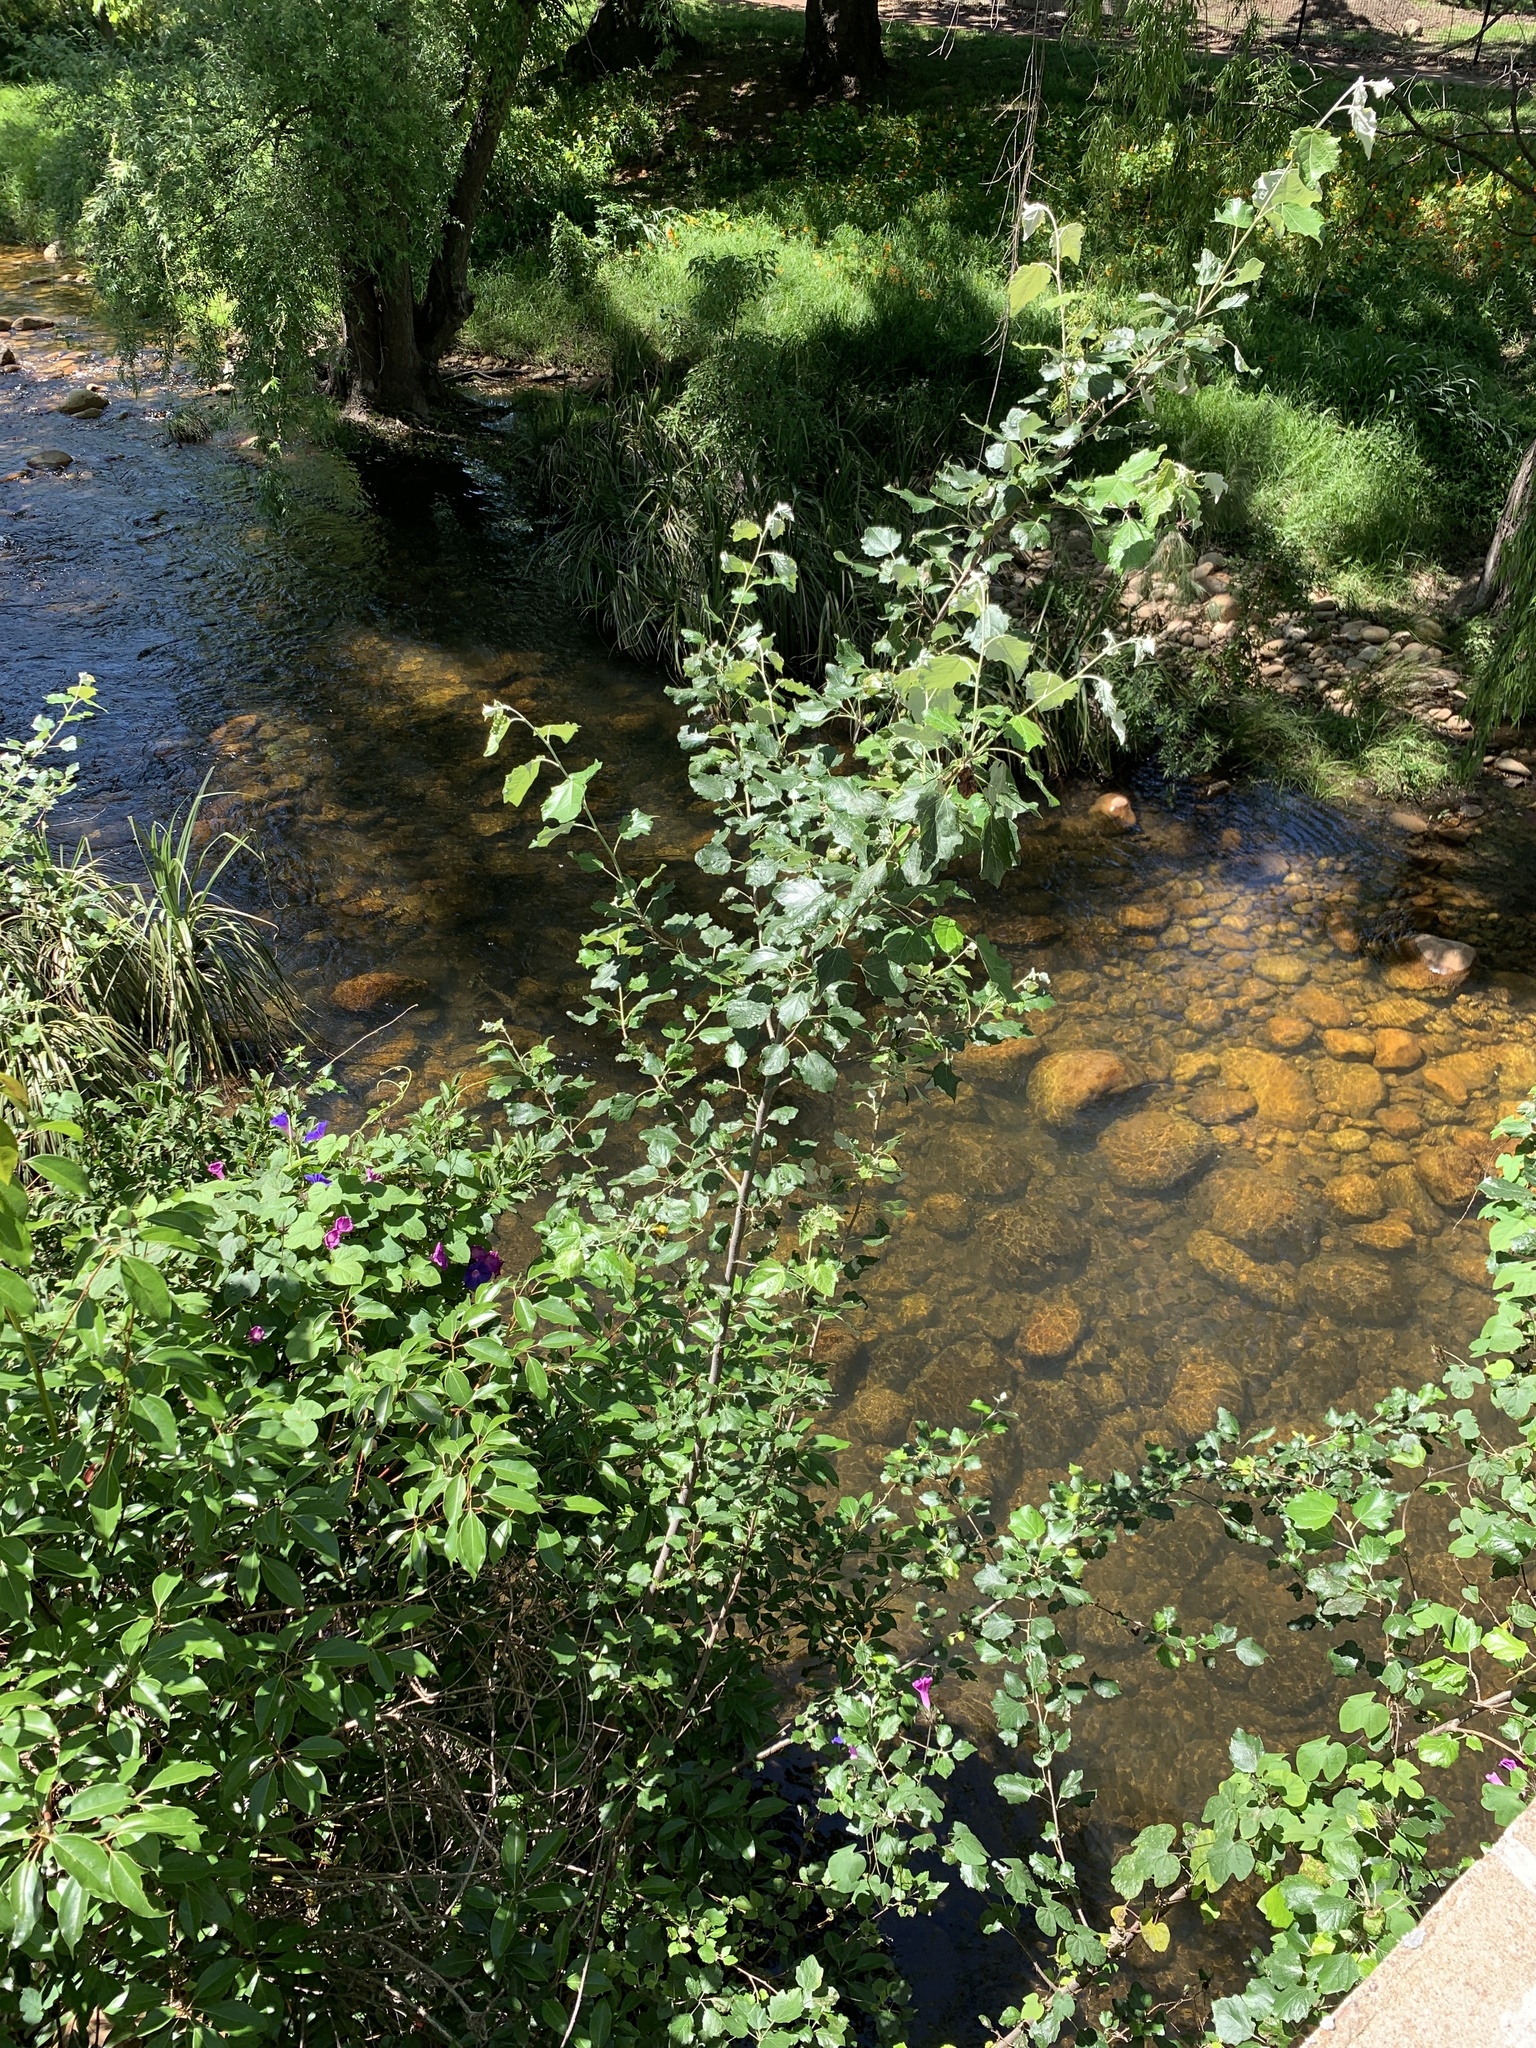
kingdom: Plantae
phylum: Tracheophyta
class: Magnoliopsida
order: Malpighiales
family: Salicaceae
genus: Populus
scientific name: Populus canescens
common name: Gray poplar
